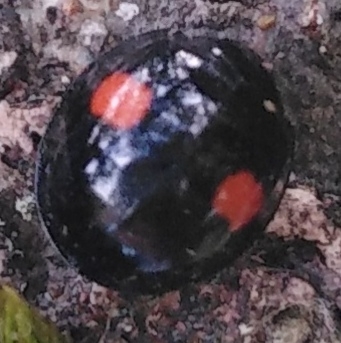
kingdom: Animalia
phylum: Arthropoda
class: Insecta
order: Coleoptera
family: Coccinellidae
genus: Chilocorus
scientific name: Chilocorus renipustulatus
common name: Kidney-spot ladybird
